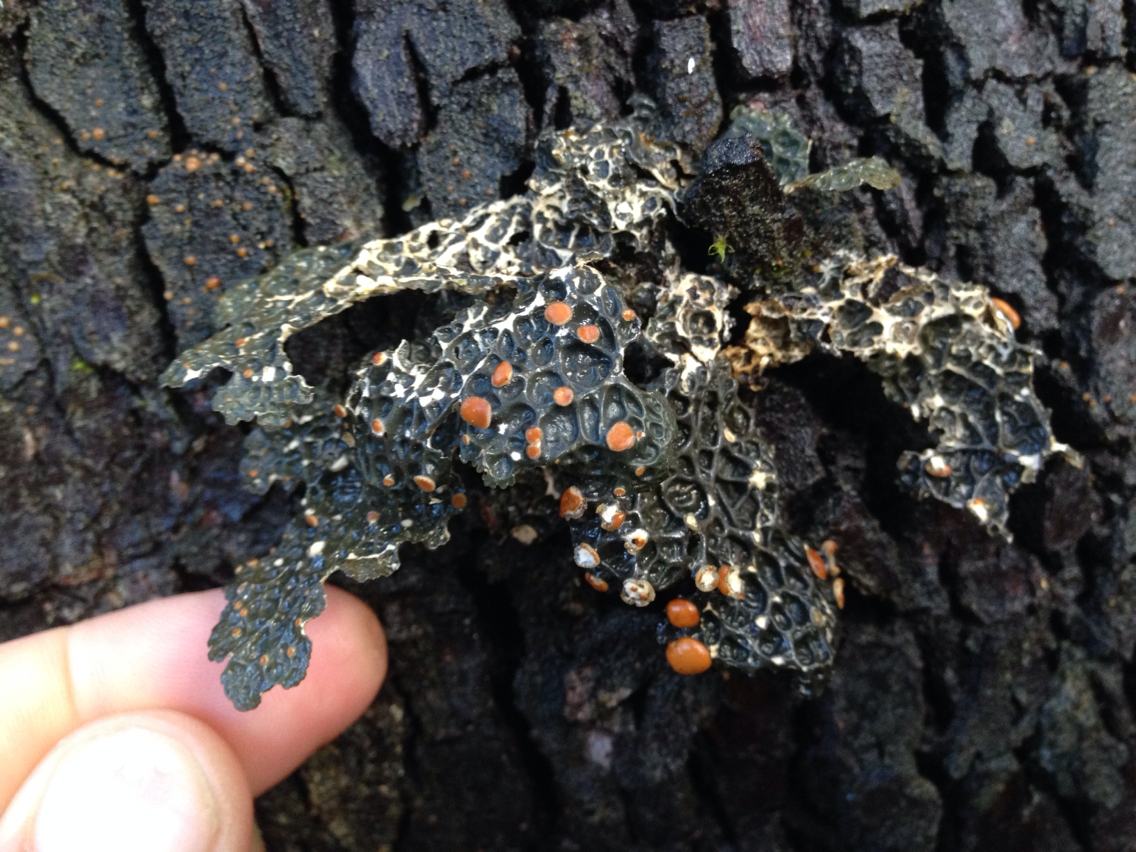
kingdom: Fungi
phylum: Ascomycota
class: Lecanoromycetes
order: Peltigerales
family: Lobariaceae
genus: Lobaria
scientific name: Lobaria anthraspis
